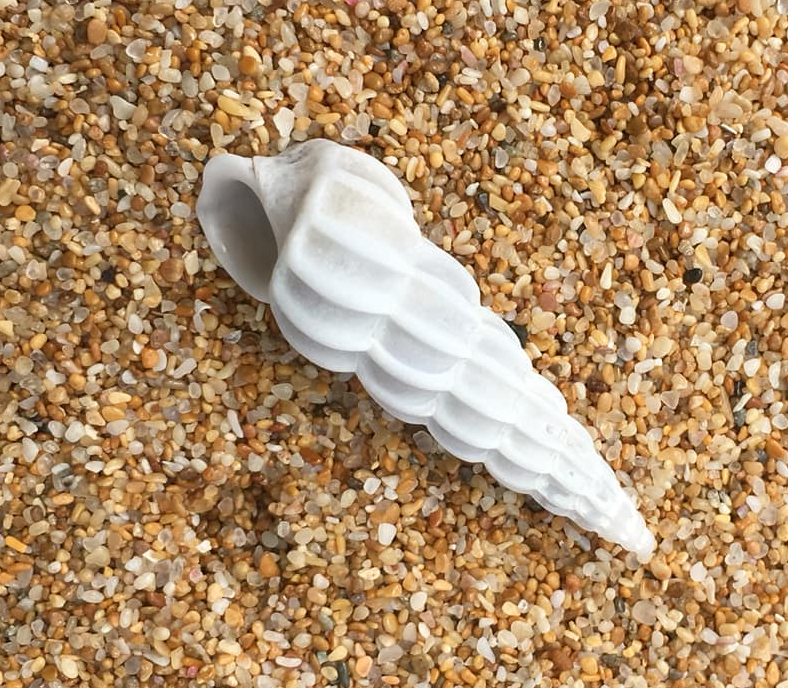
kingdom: Animalia
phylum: Mollusca
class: Gastropoda
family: Epitoniidae
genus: Opalia
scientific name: Opalia australis
